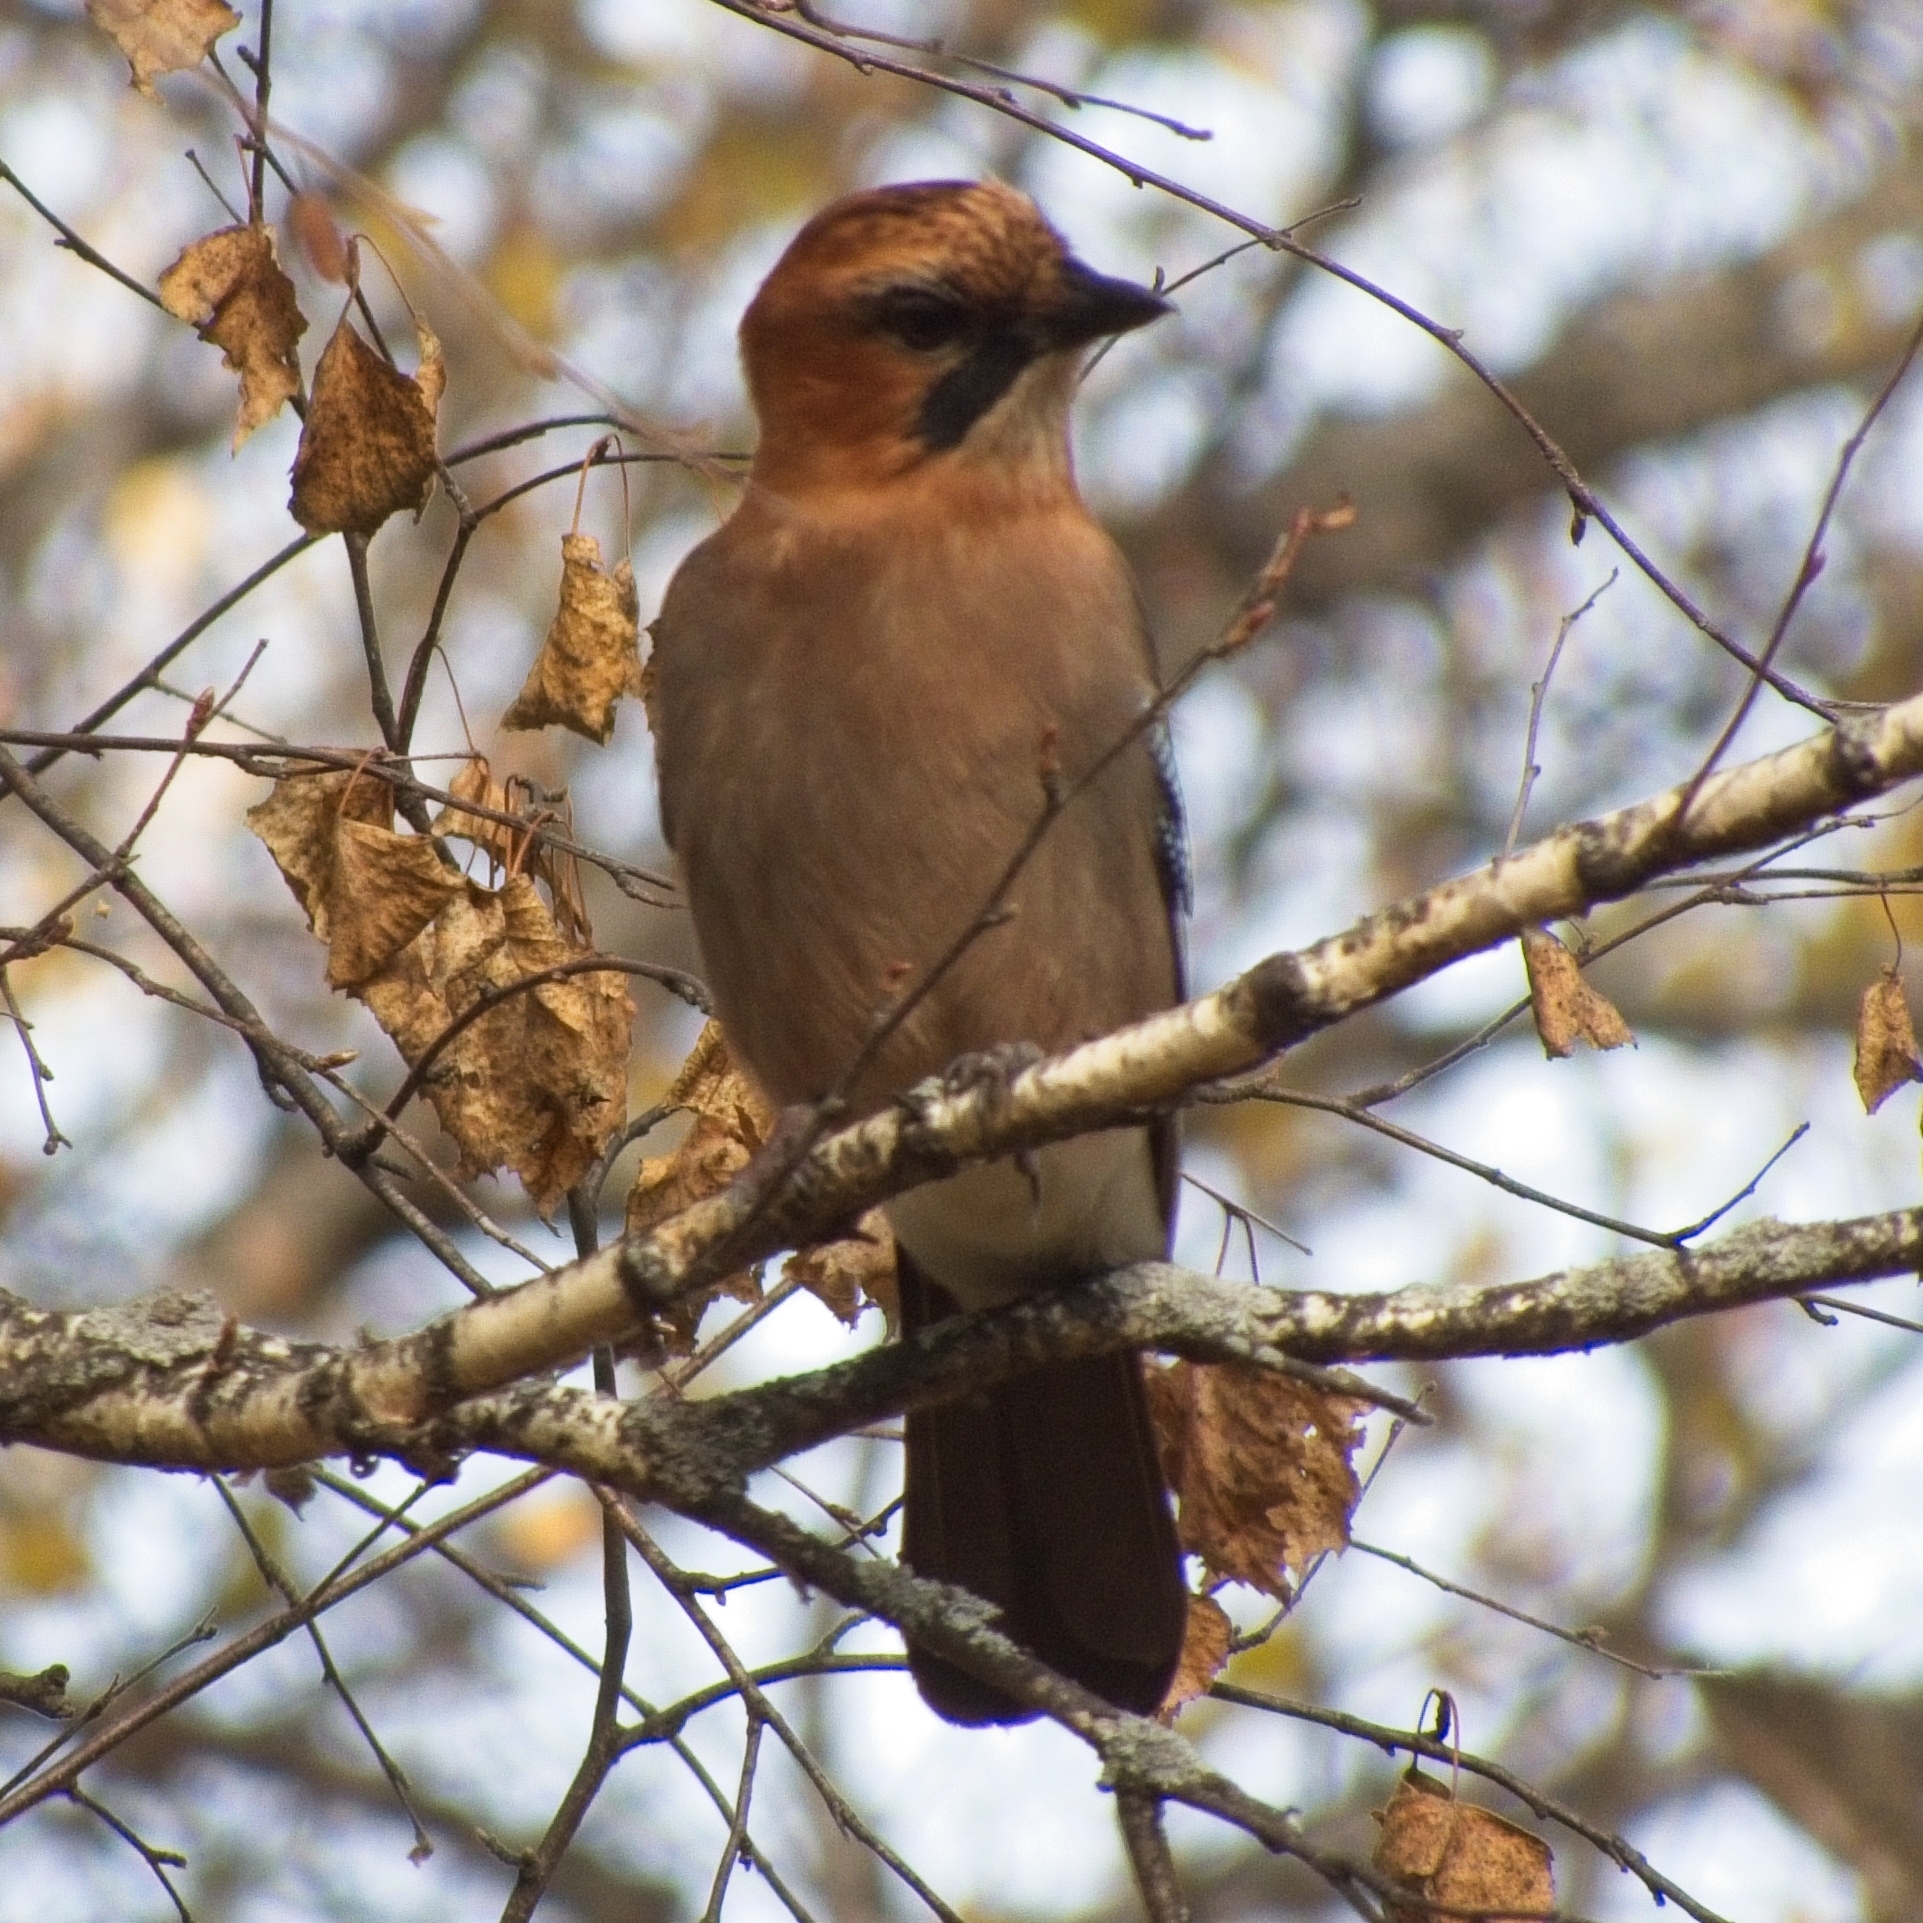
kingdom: Animalia
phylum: Chordata
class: Aves
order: Passeriformes
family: Corvidae
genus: Garrulus
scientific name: Garrulus glandarius
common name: Eurasian jay
